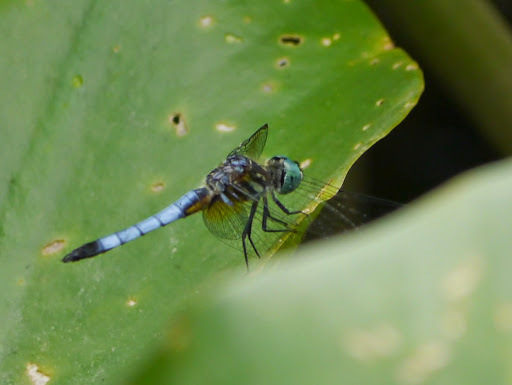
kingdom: Animalia
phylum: Arthropoda
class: Insecta
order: Odonata
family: Libellulidae
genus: Pachydiplax
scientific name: Pachydiplax longipennis
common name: Blue dasher
